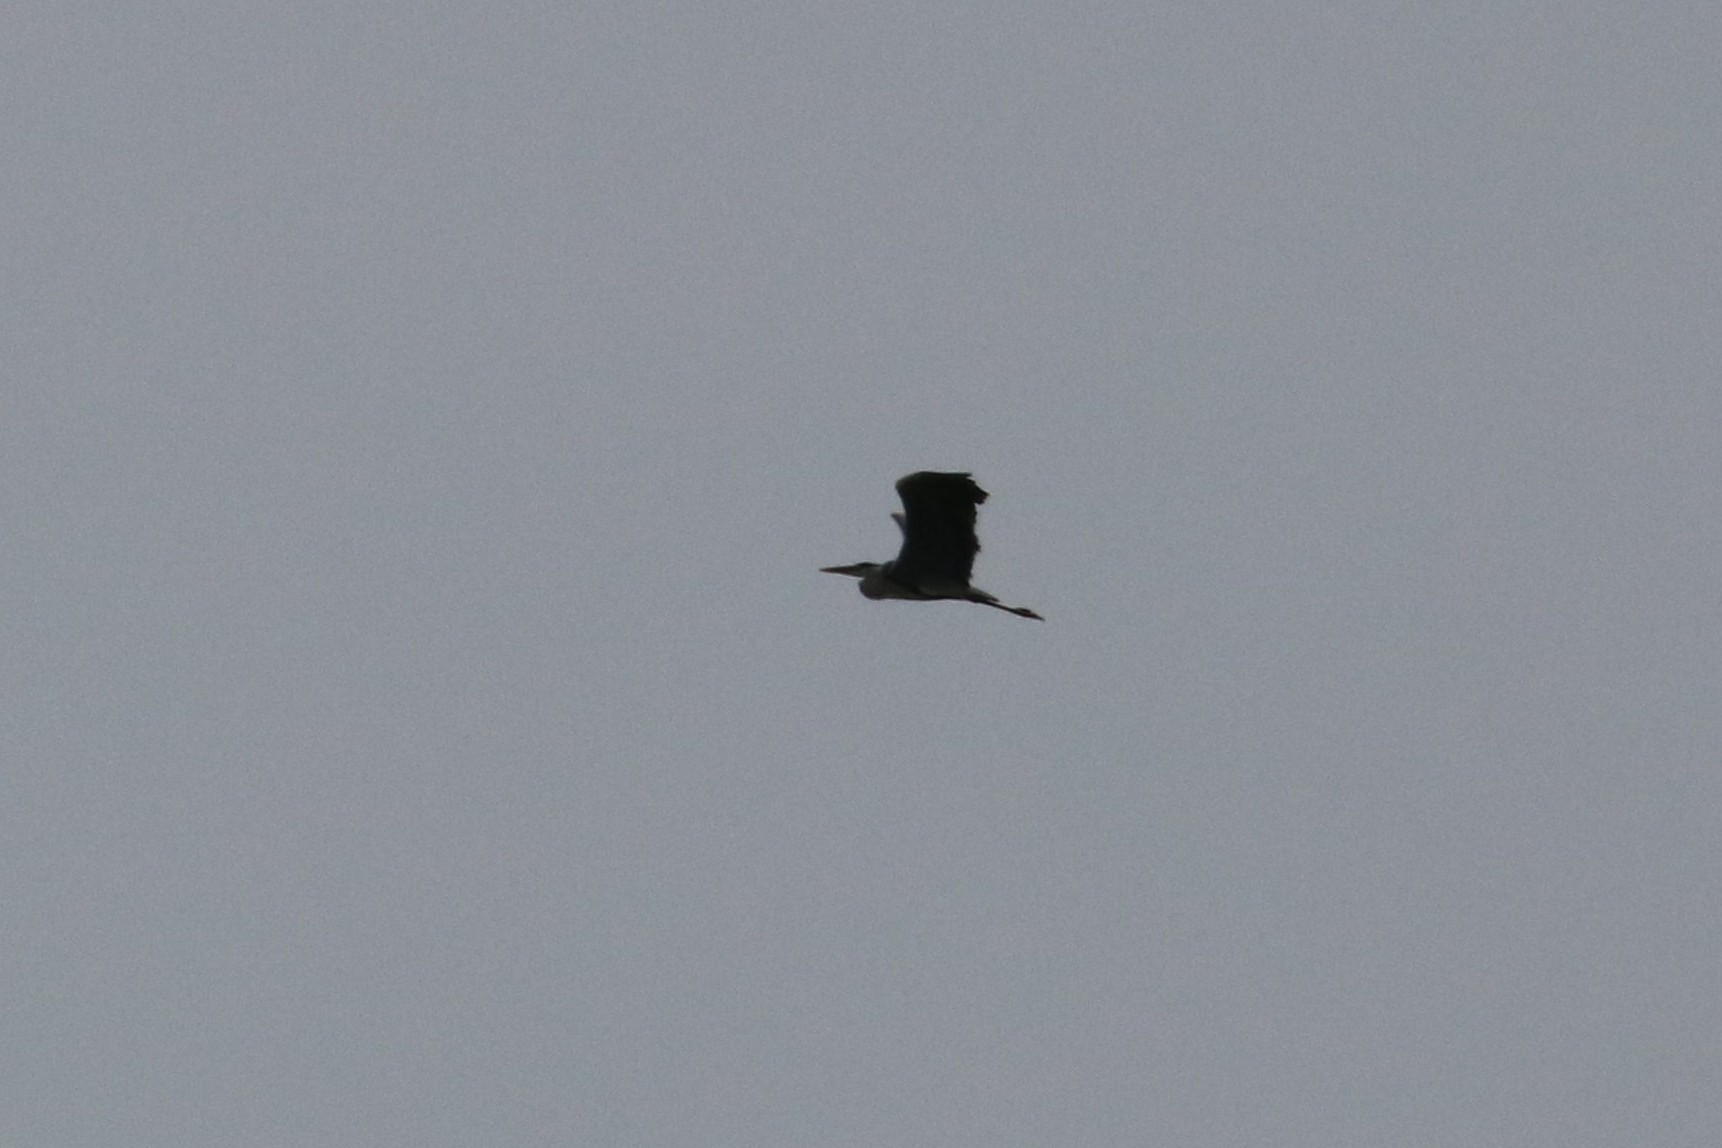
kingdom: Animalia
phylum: Chordata
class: Aves
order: Pelecaniformes
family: Ardeidae
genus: Ardea
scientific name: Ardea cinerea
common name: Grey heron
